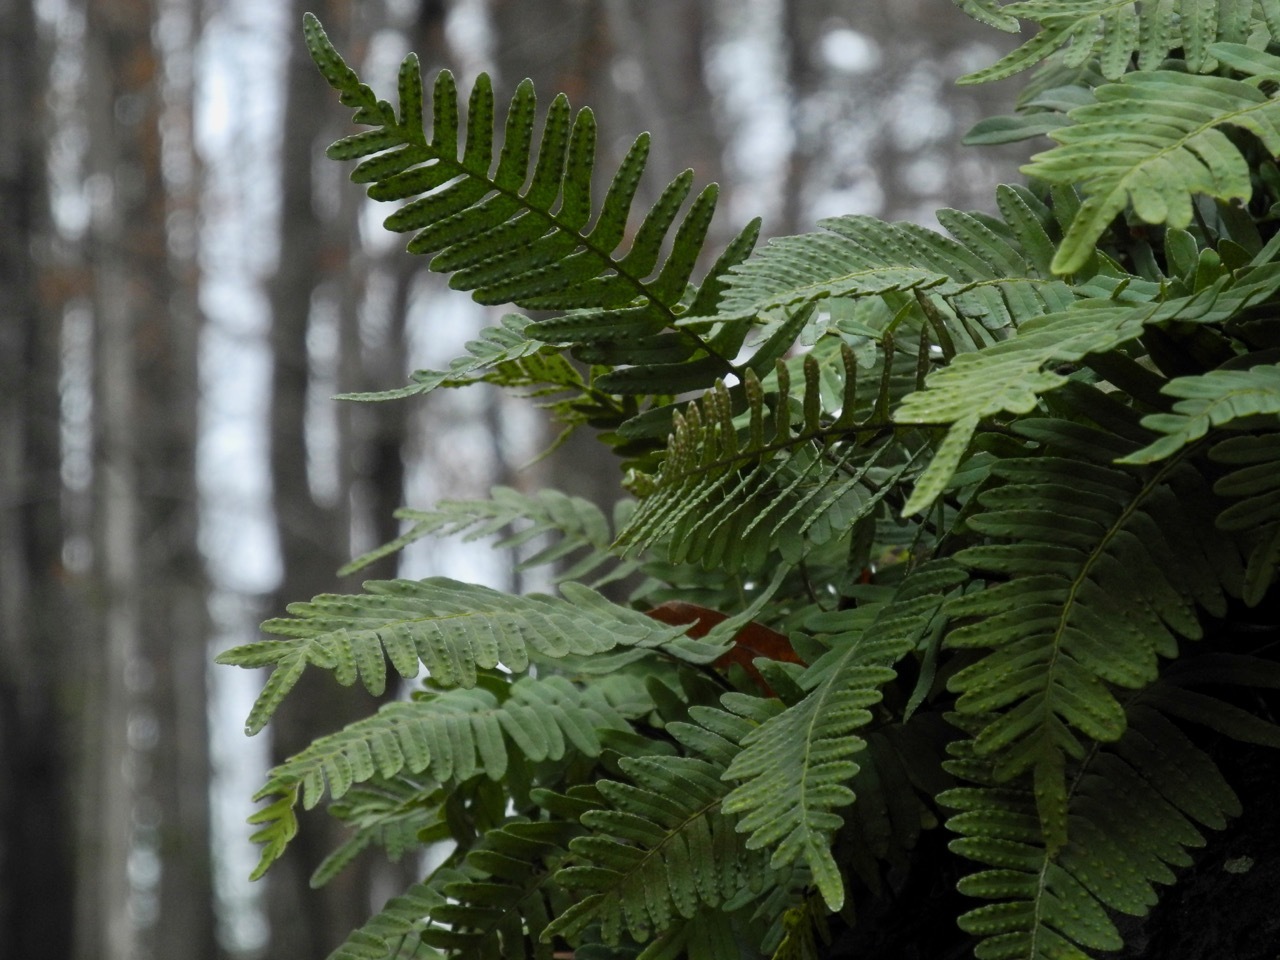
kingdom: Plantae
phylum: Tracheophyta
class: Polypodiopsida
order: Polypodiales
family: Polypodiaceae
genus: Pleopeltis
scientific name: Pleopeltis michauxiana
